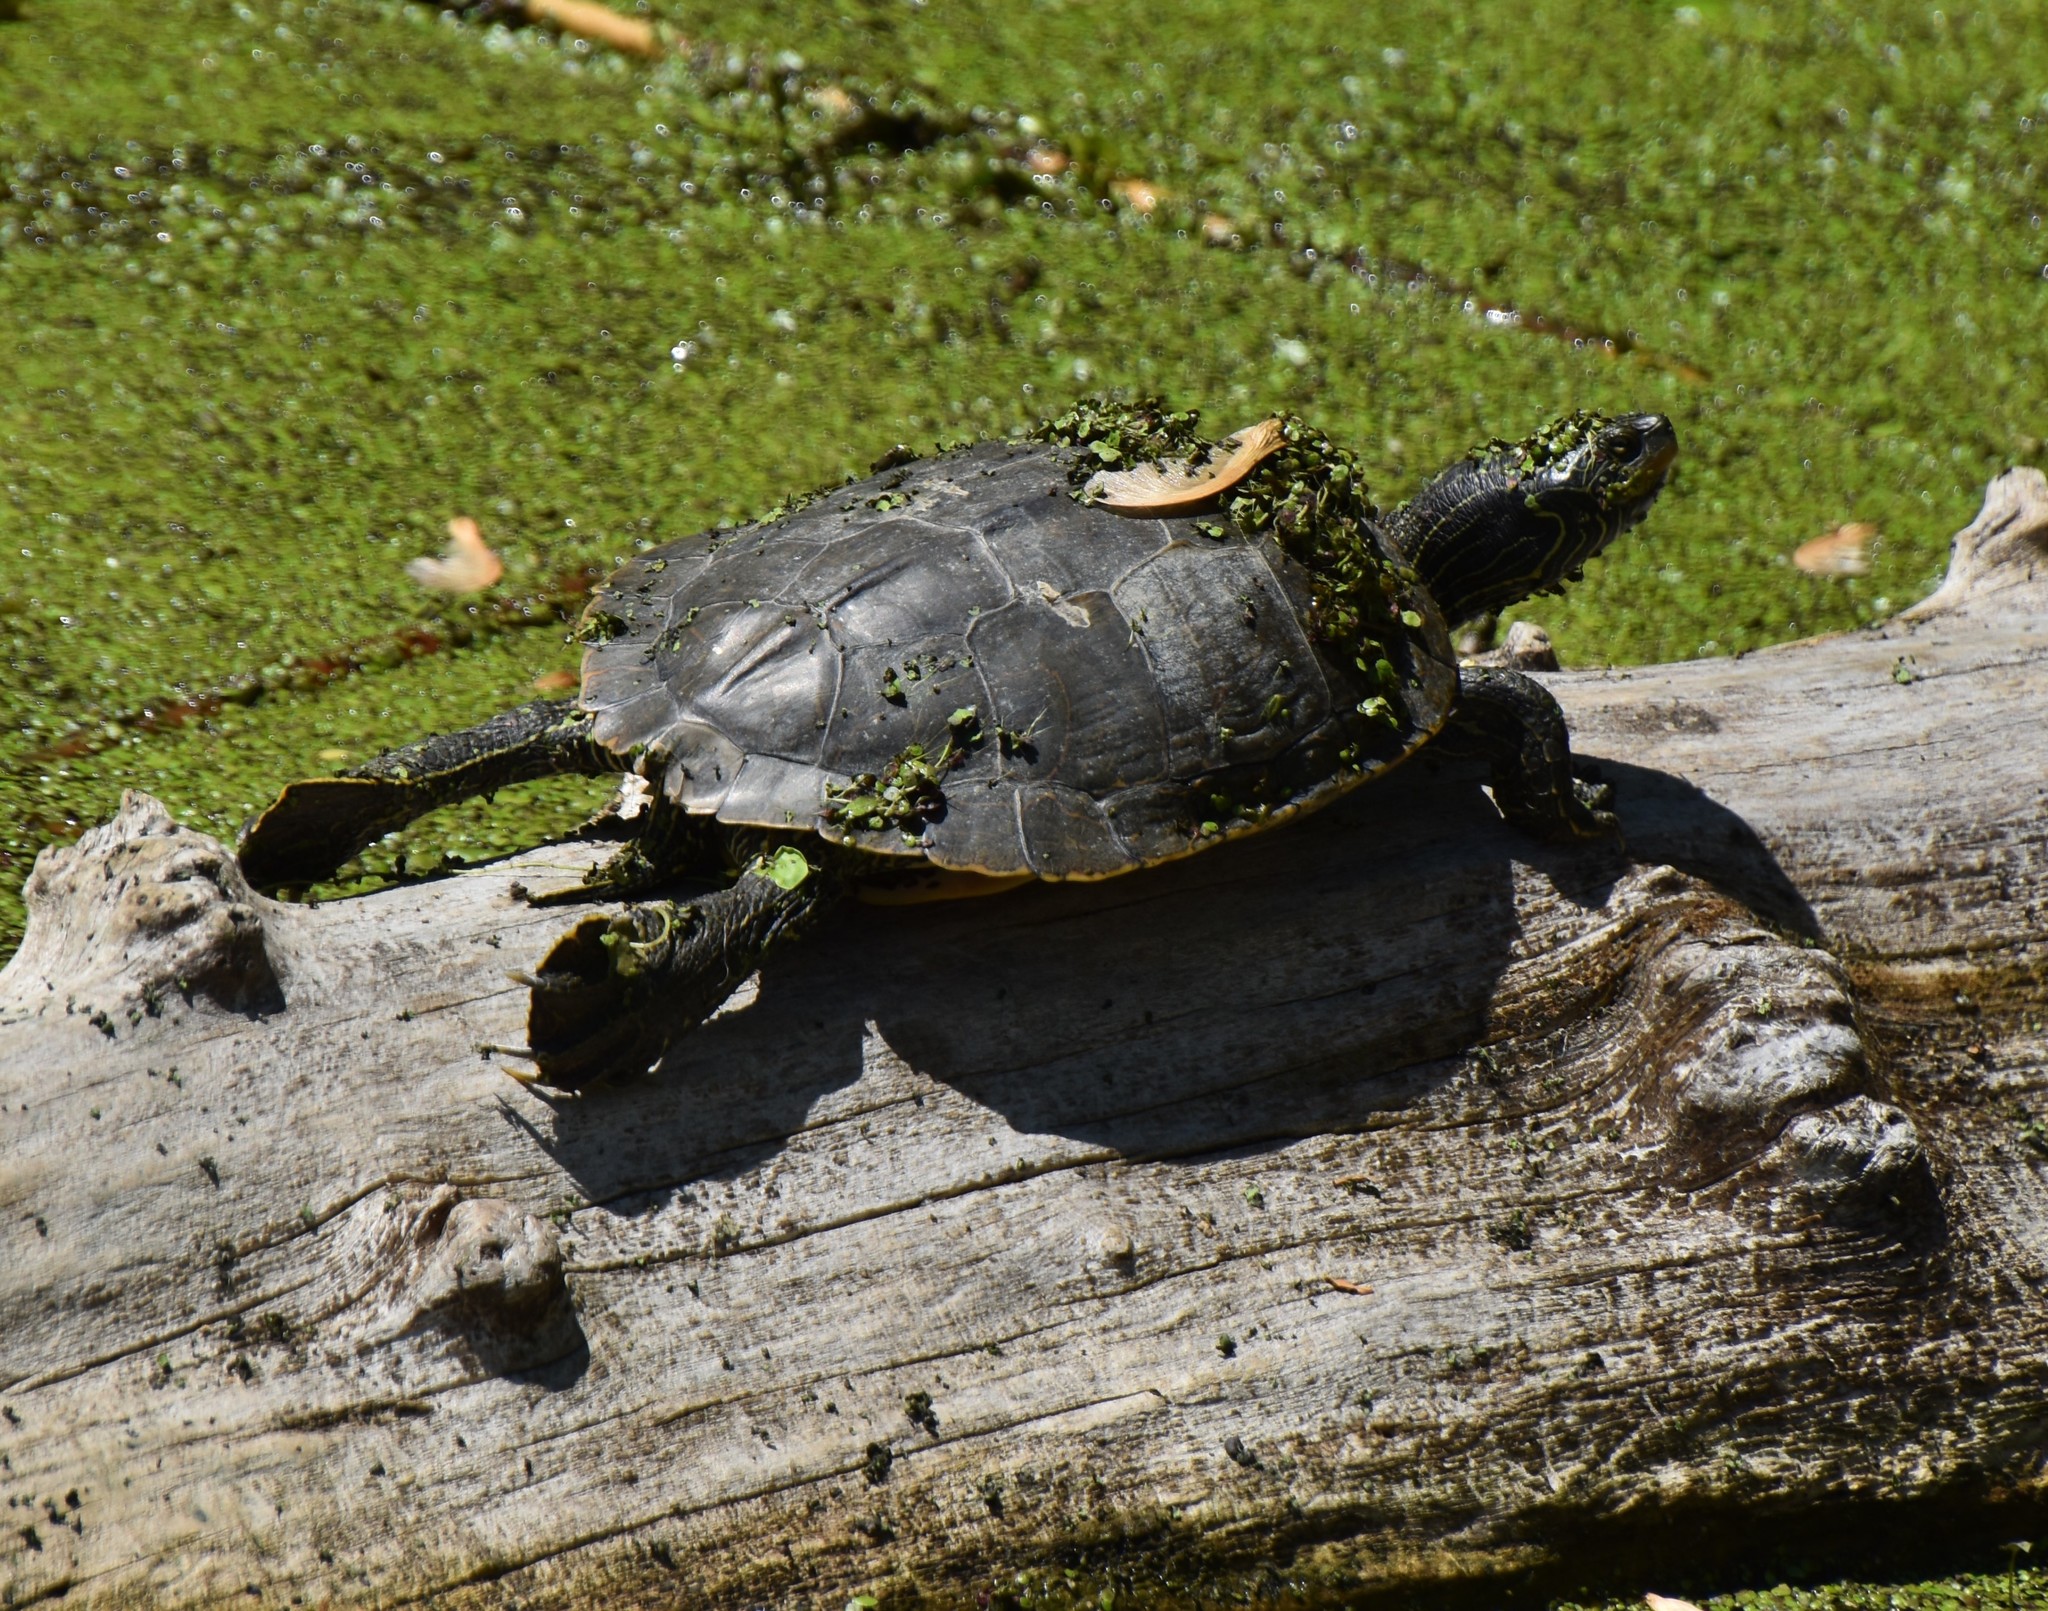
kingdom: Animalia
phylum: Chordata
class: Testudines
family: Emydidae
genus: Graptemys
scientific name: Graptemys geographica
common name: Common map turtle
